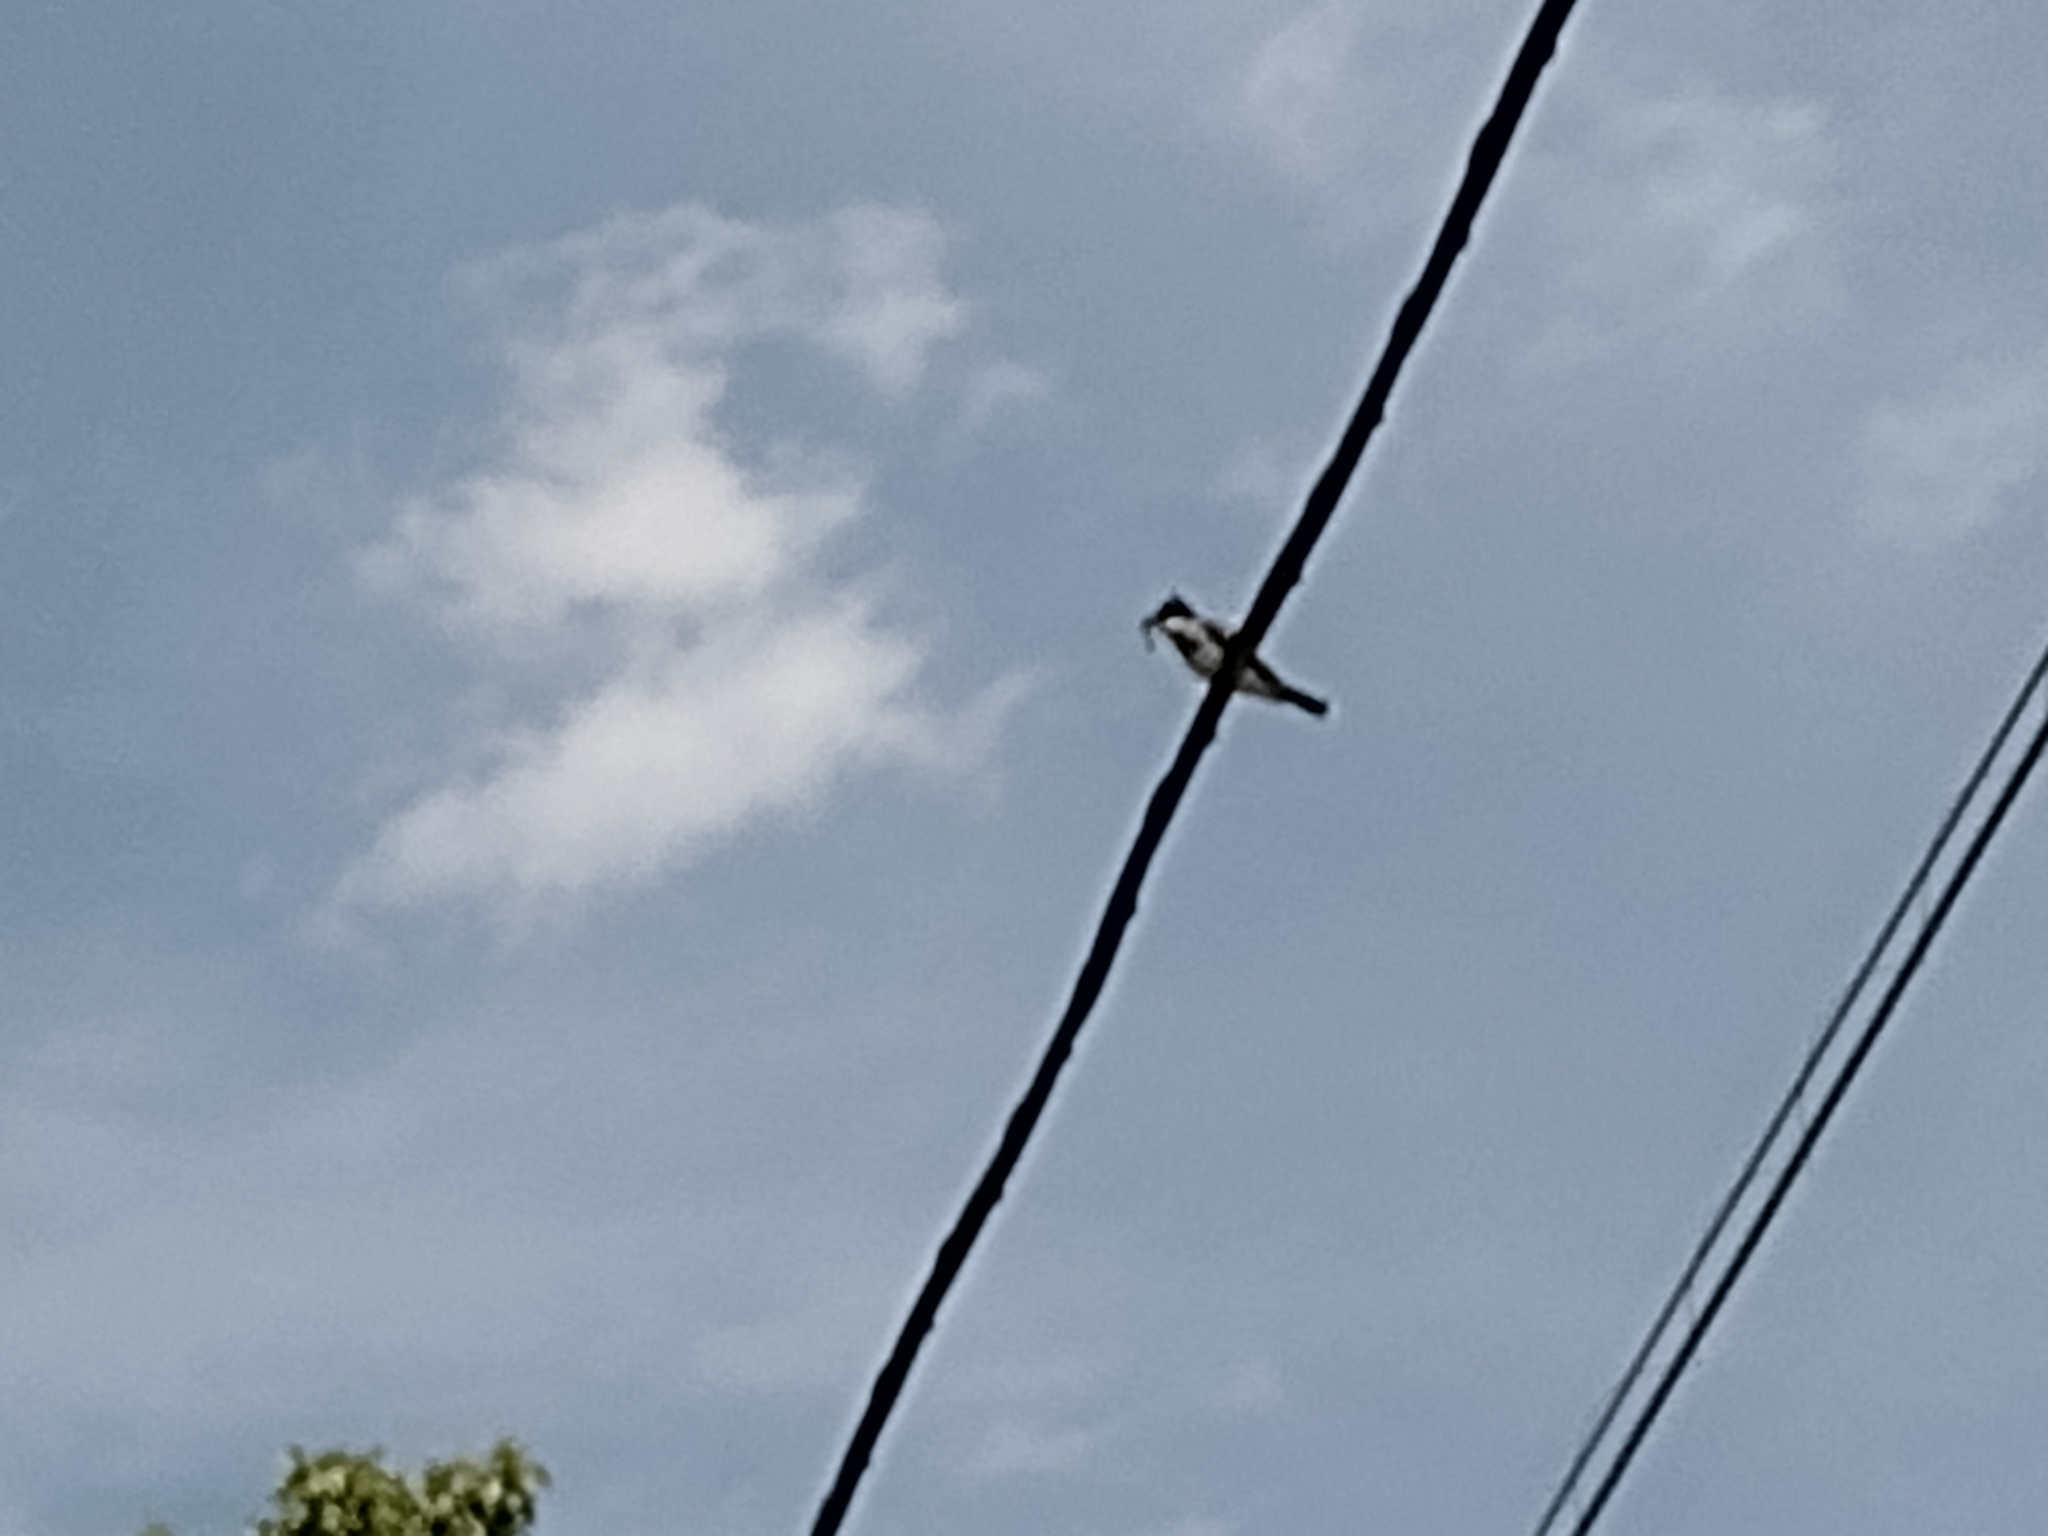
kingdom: Animalia
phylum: Chordata
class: Aves
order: Passeriformes
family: Tyrannidae
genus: Tyrannus
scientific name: Tyrannus tyrannus
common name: Eastern kingbird
